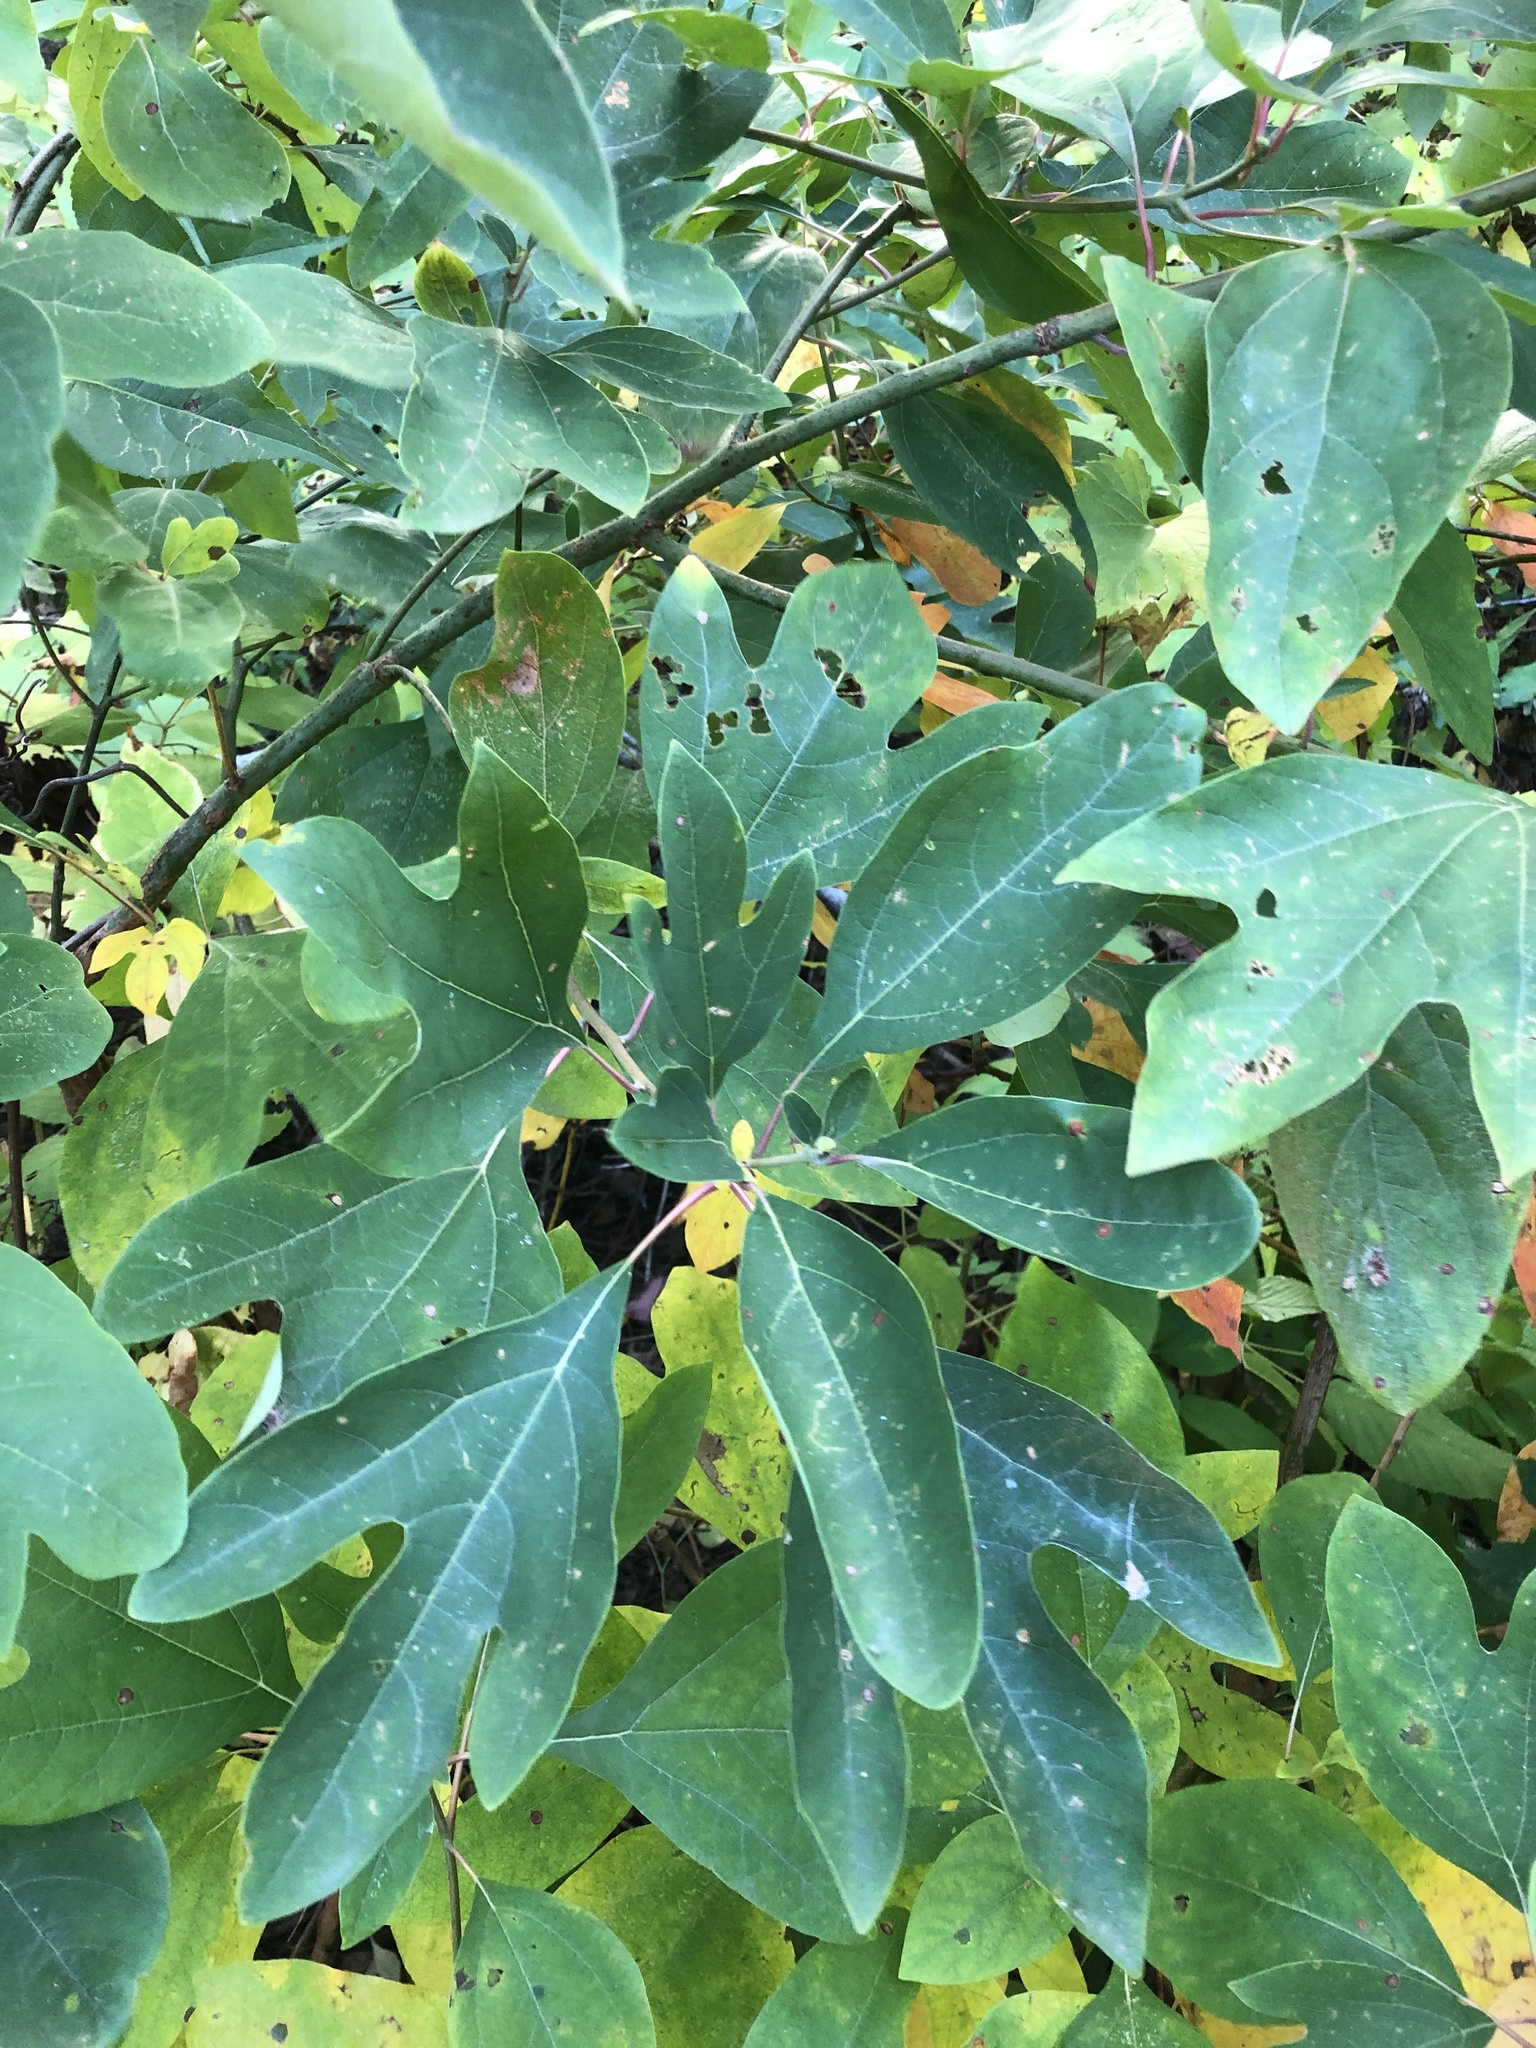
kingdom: Plantae
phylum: Tracheophyta
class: Magnoliopsida
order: Laurales
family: Lauraceae
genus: Sassafras
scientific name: Sassafras albidum
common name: Sassafras
